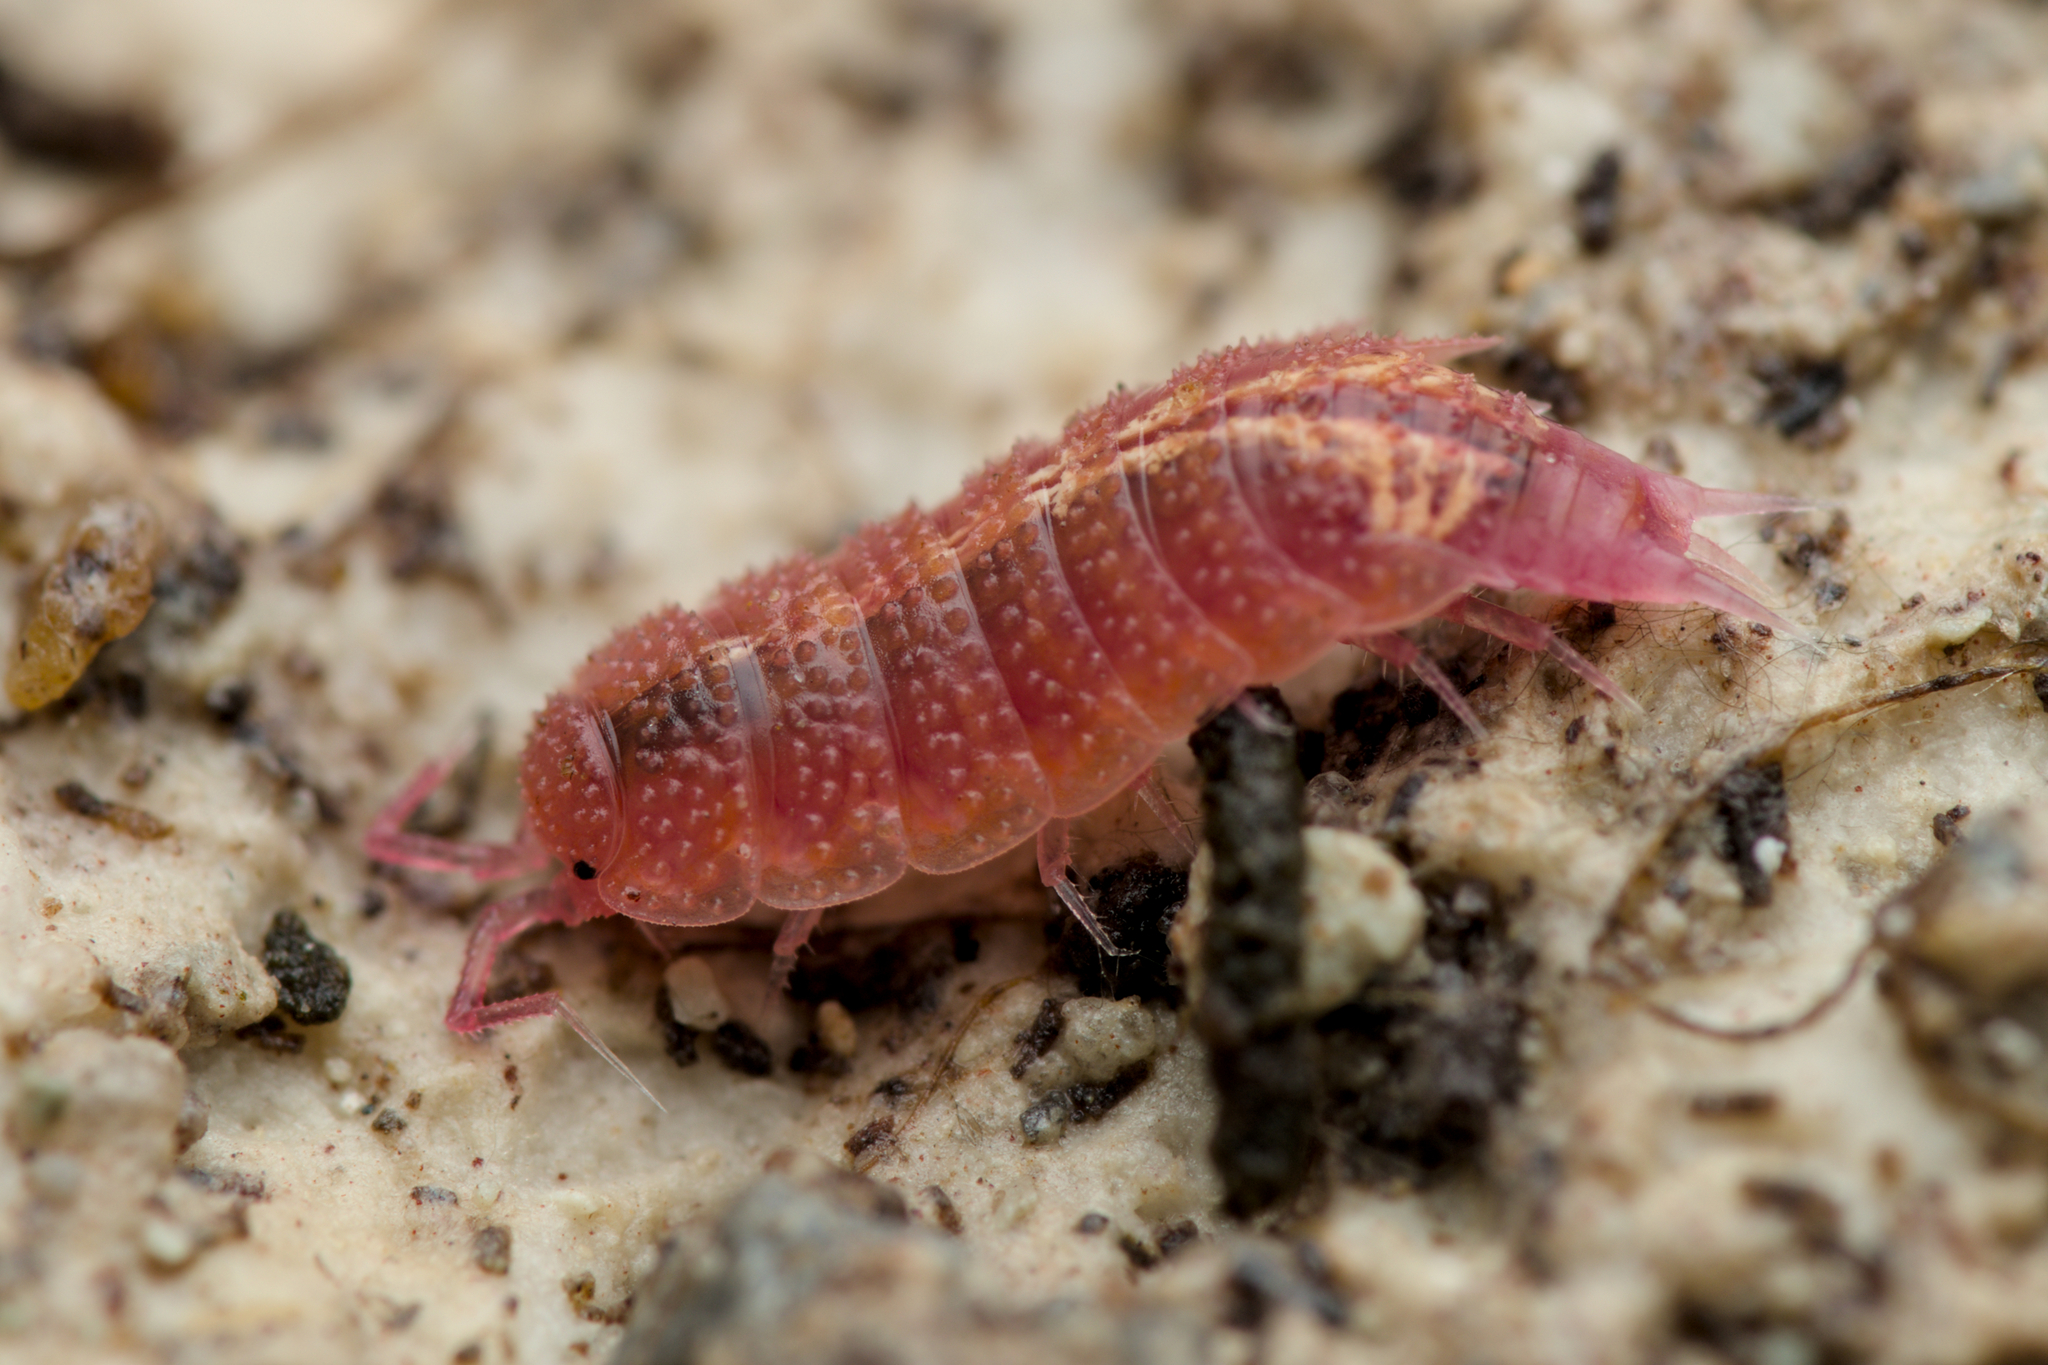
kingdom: Animalia
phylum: Arthropoda
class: Malacostraca
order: Isopoda
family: Trichoniscidae
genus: Androniscus
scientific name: Androniscus dentiger
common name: Rosy woodlouse
